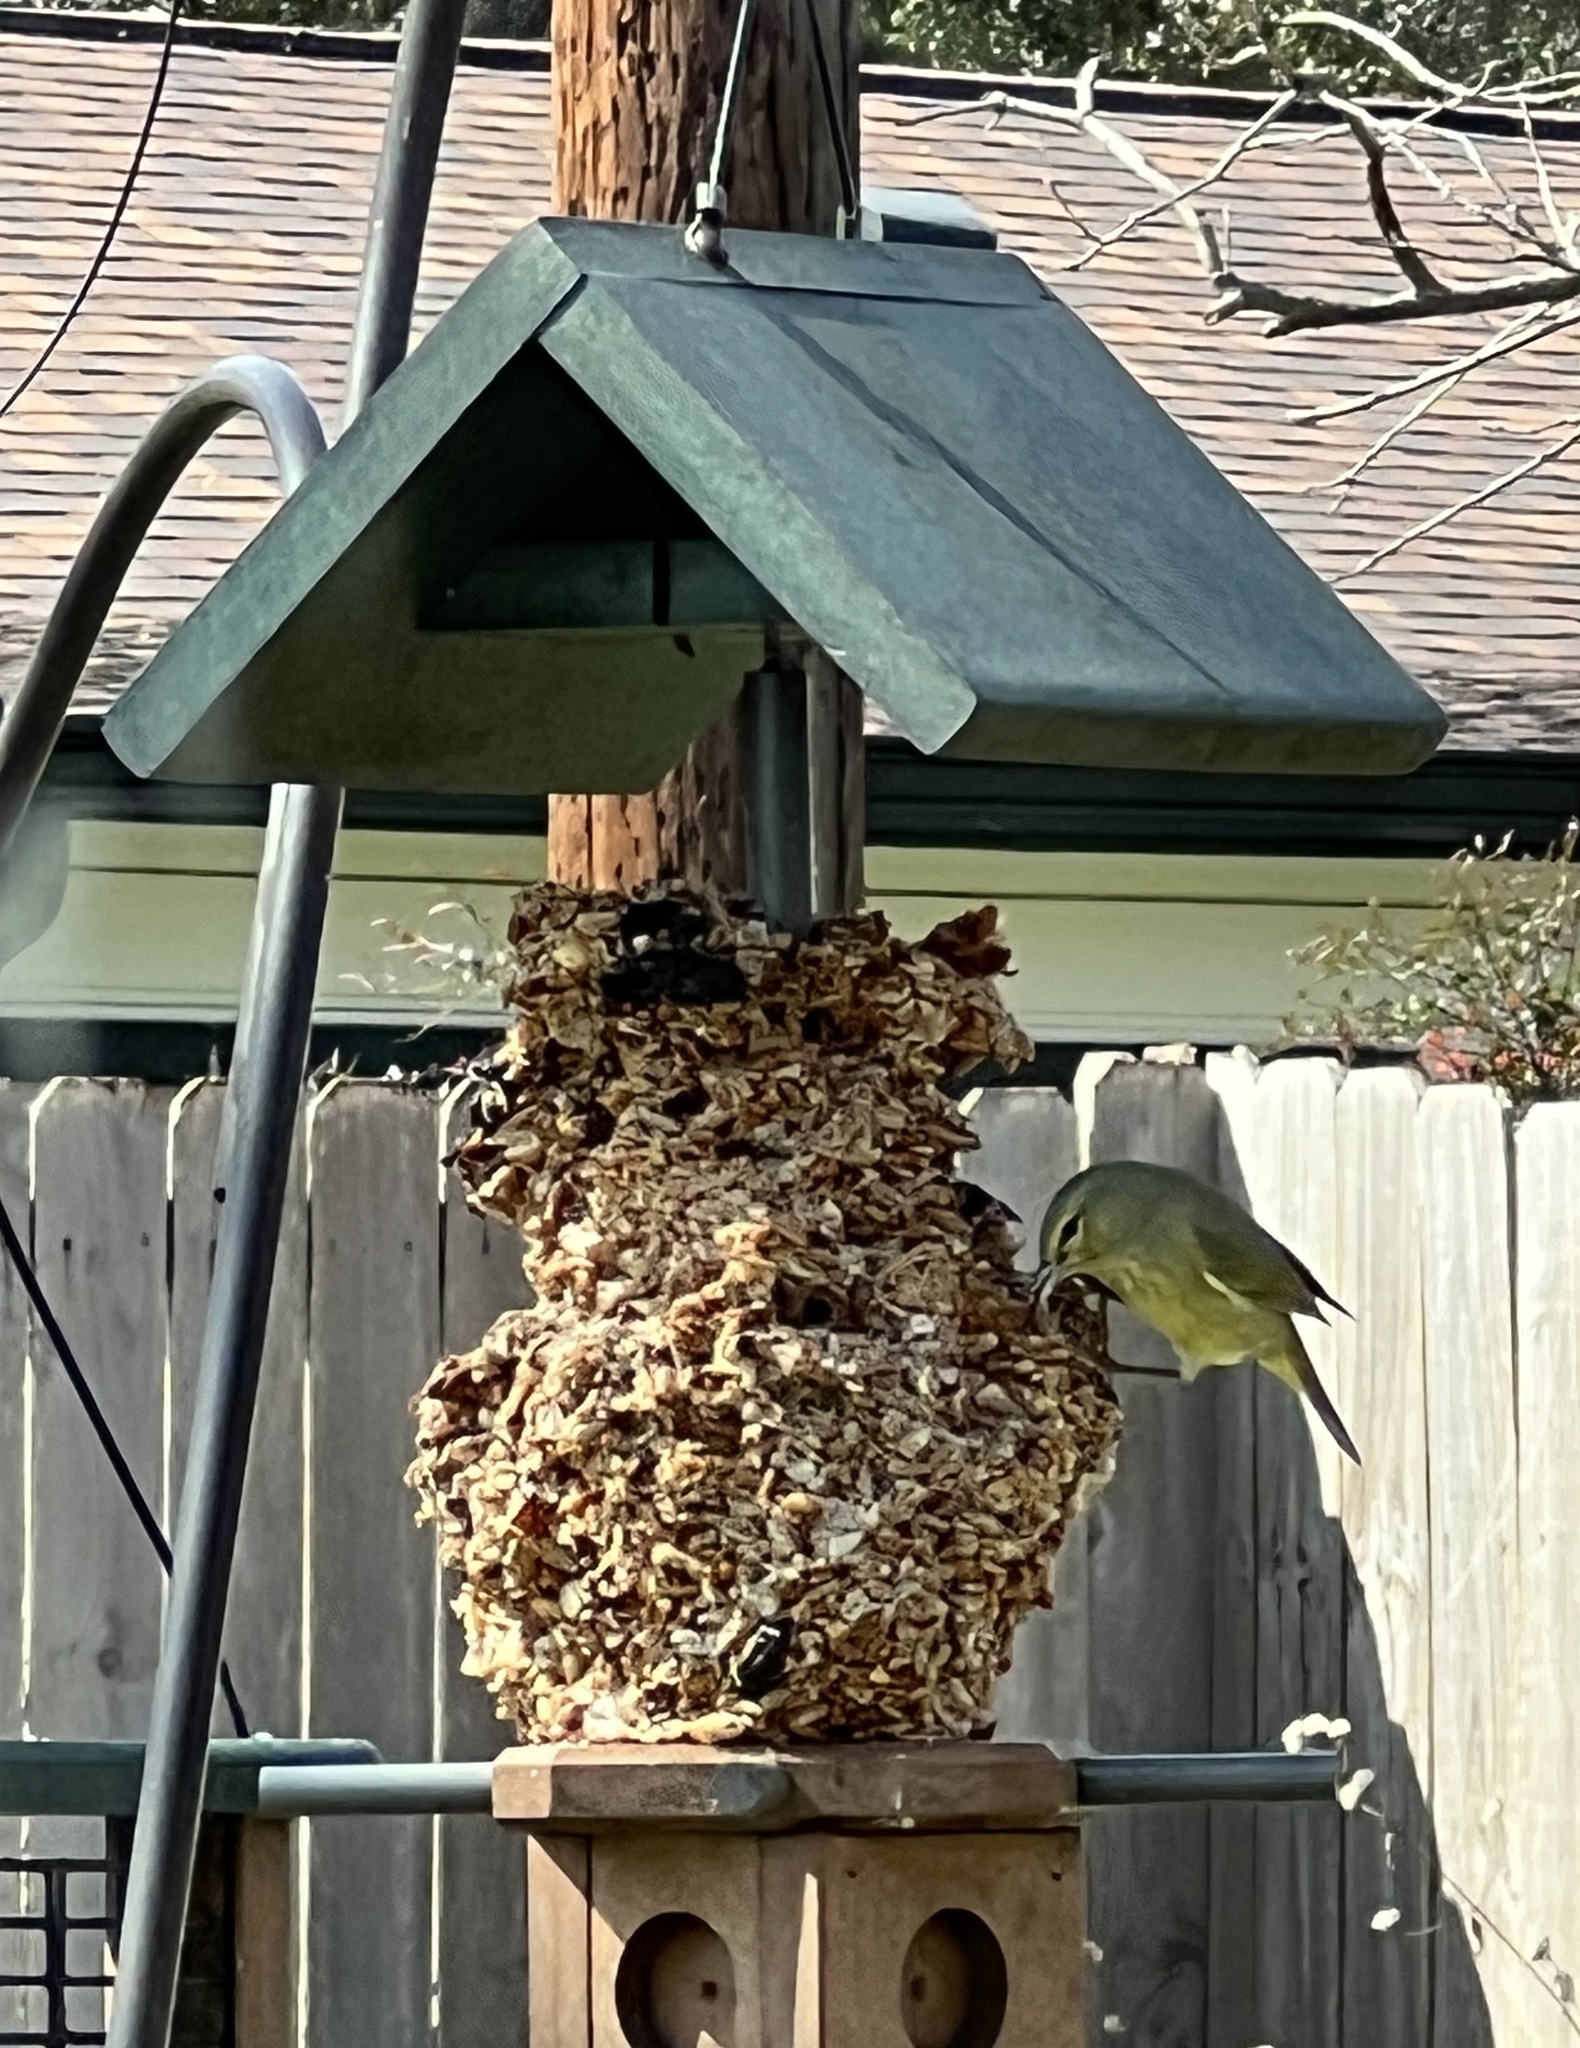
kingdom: Animalia
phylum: Chordata
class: Aves
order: Passeriformes
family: Parulidae
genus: Leiothlypis
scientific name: Leiothlypis celata
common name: Orange-crowned warbler
